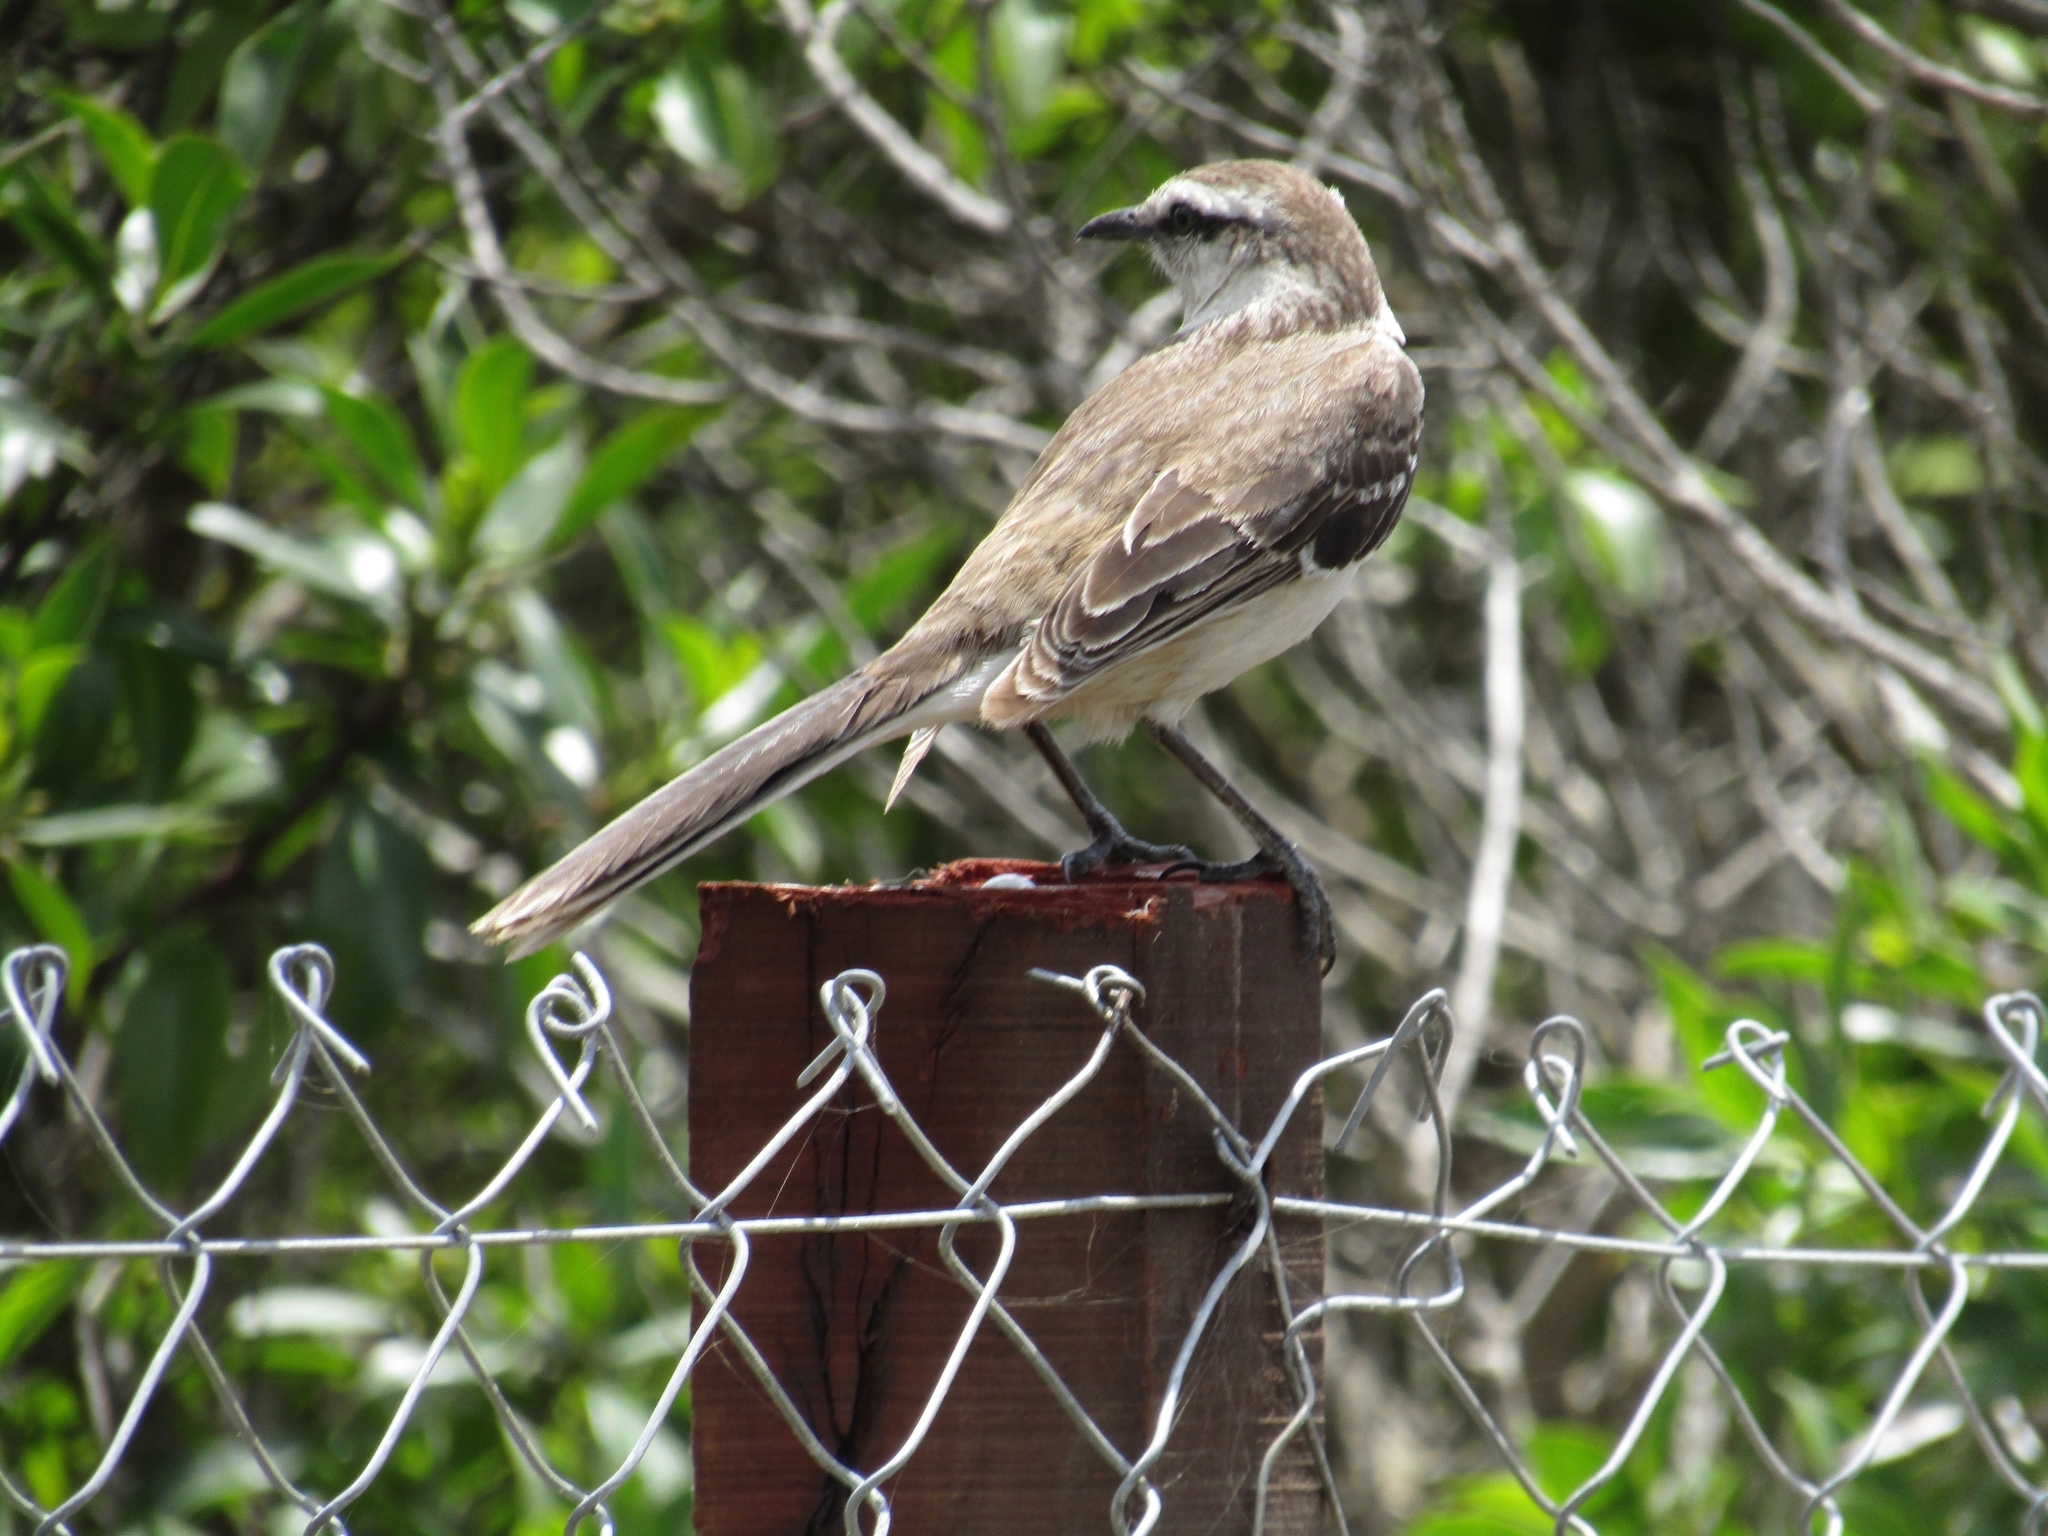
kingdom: Animalia
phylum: Chordata
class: Aves
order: Passeriformes
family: Mimidae
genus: Mimus
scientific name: Mimus saturninus
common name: Chalk-browed mockingbird
